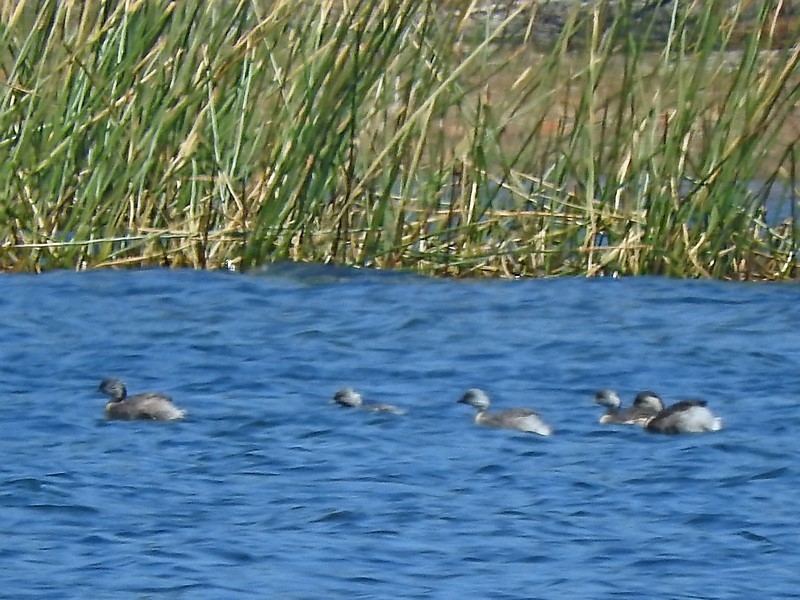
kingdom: Animalia
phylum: Chordata
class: Aves
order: Podicipediformes
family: Podicipedidae
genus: Poliocephalus
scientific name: Poliocephalus poliocephalus
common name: Hoary-headed grebe
